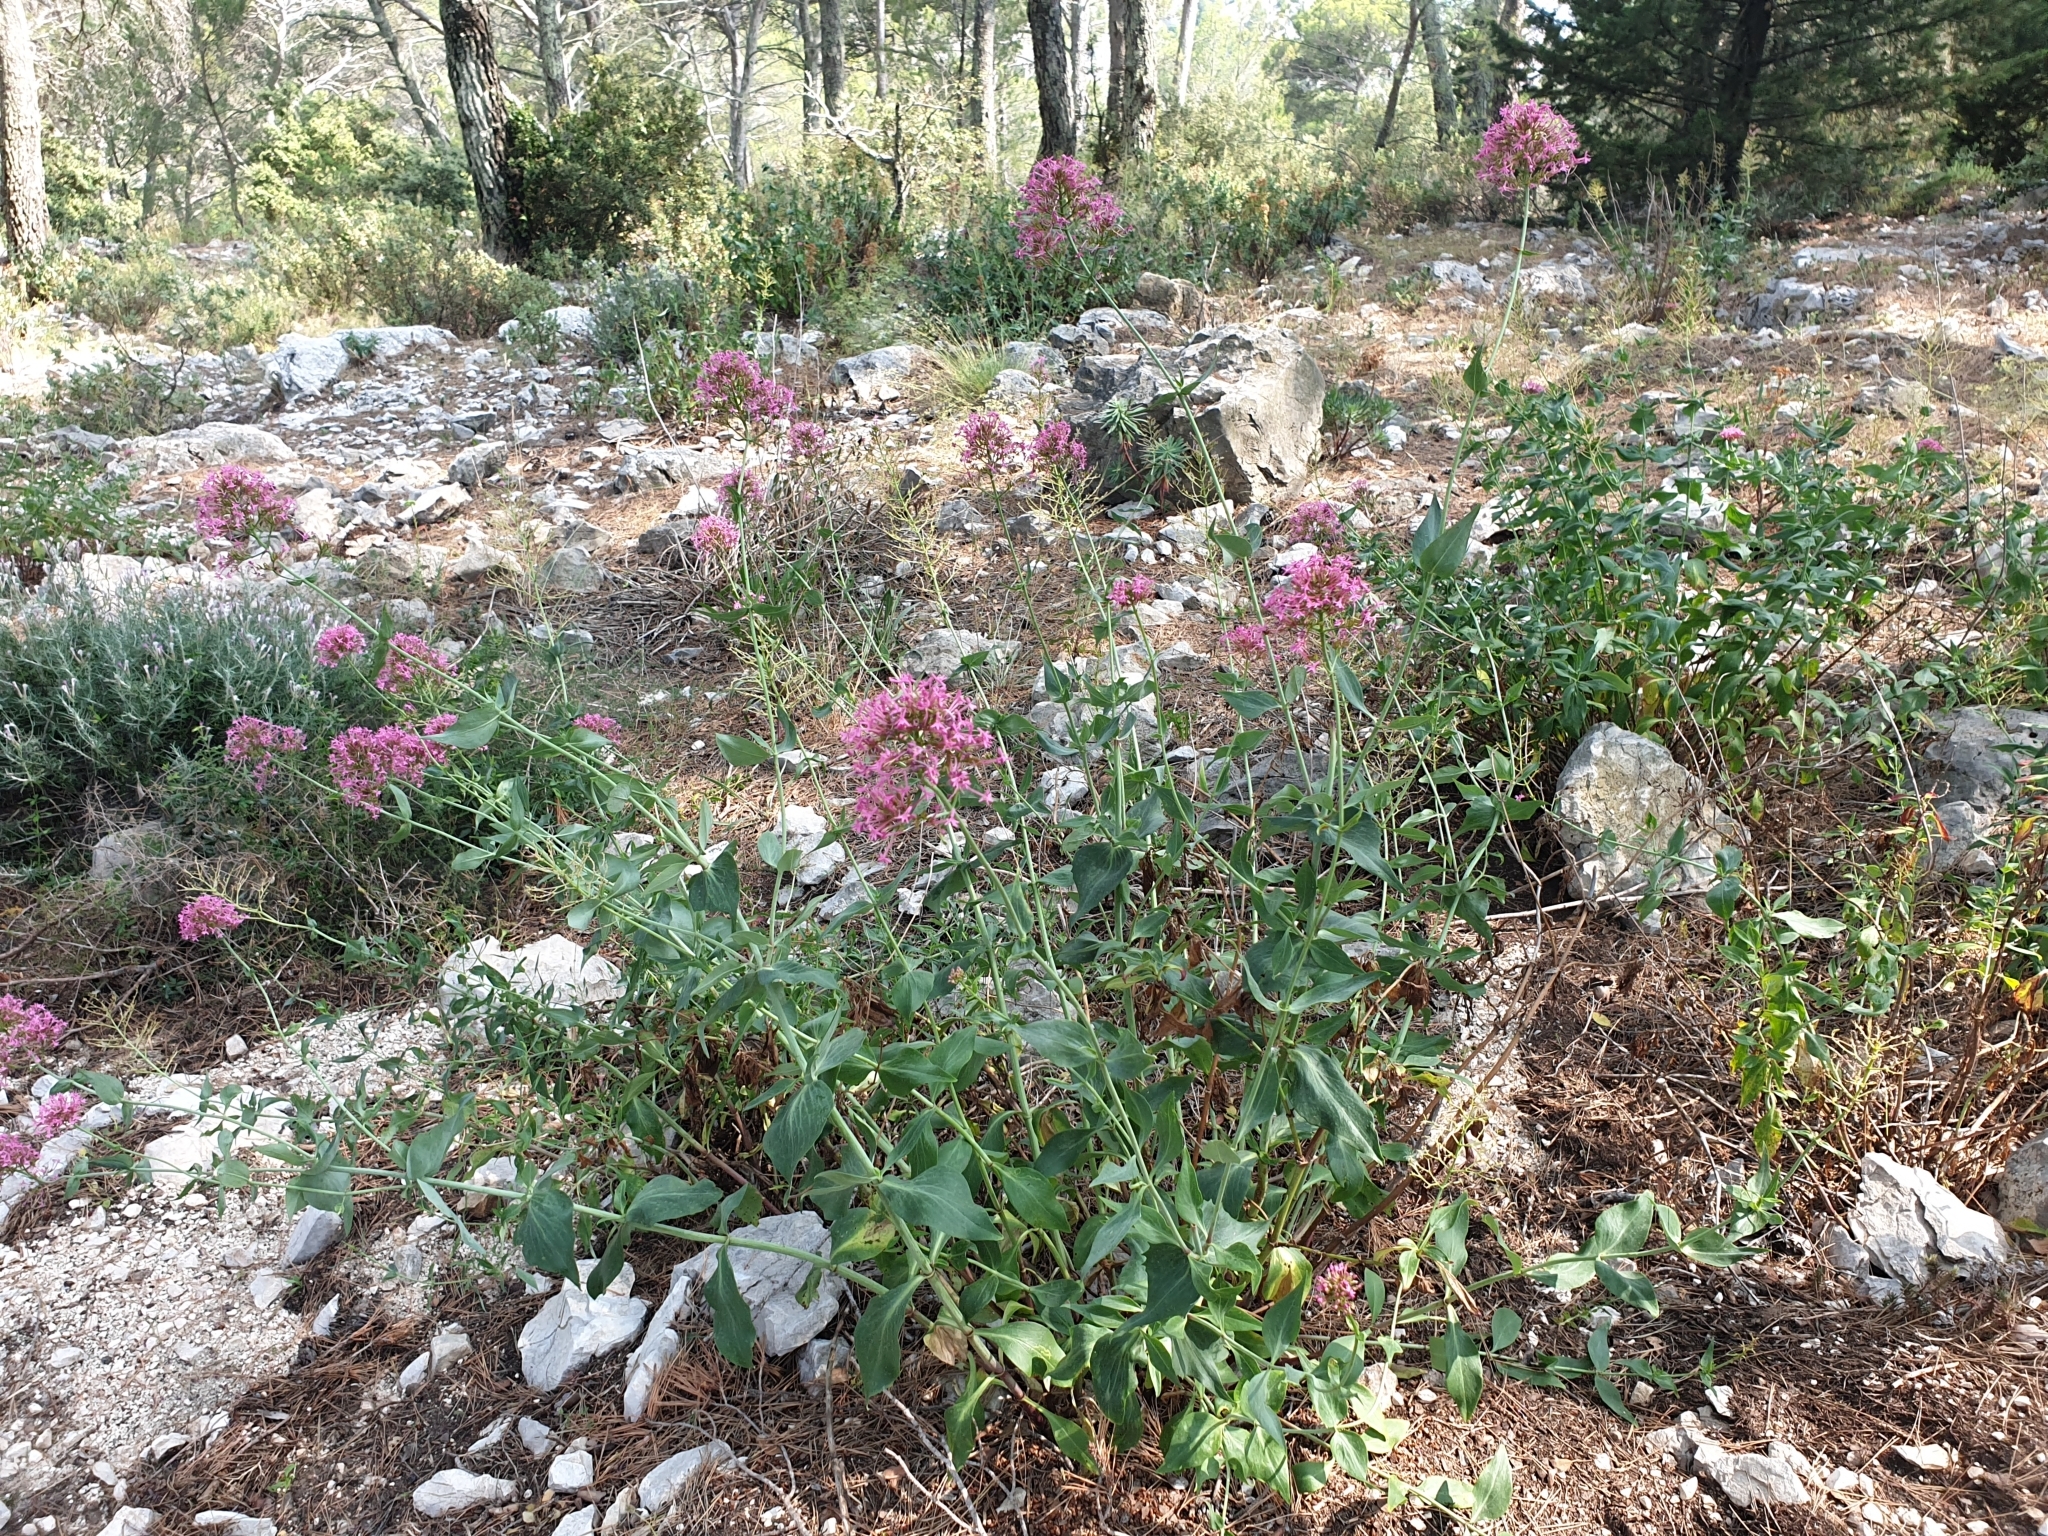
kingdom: Plantae
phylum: Tracheophyta
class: Magnoliopsida
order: Dipsacales
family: Caprifoliaceae
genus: Centranthus
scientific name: Centranthus ruber
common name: Red valerian
